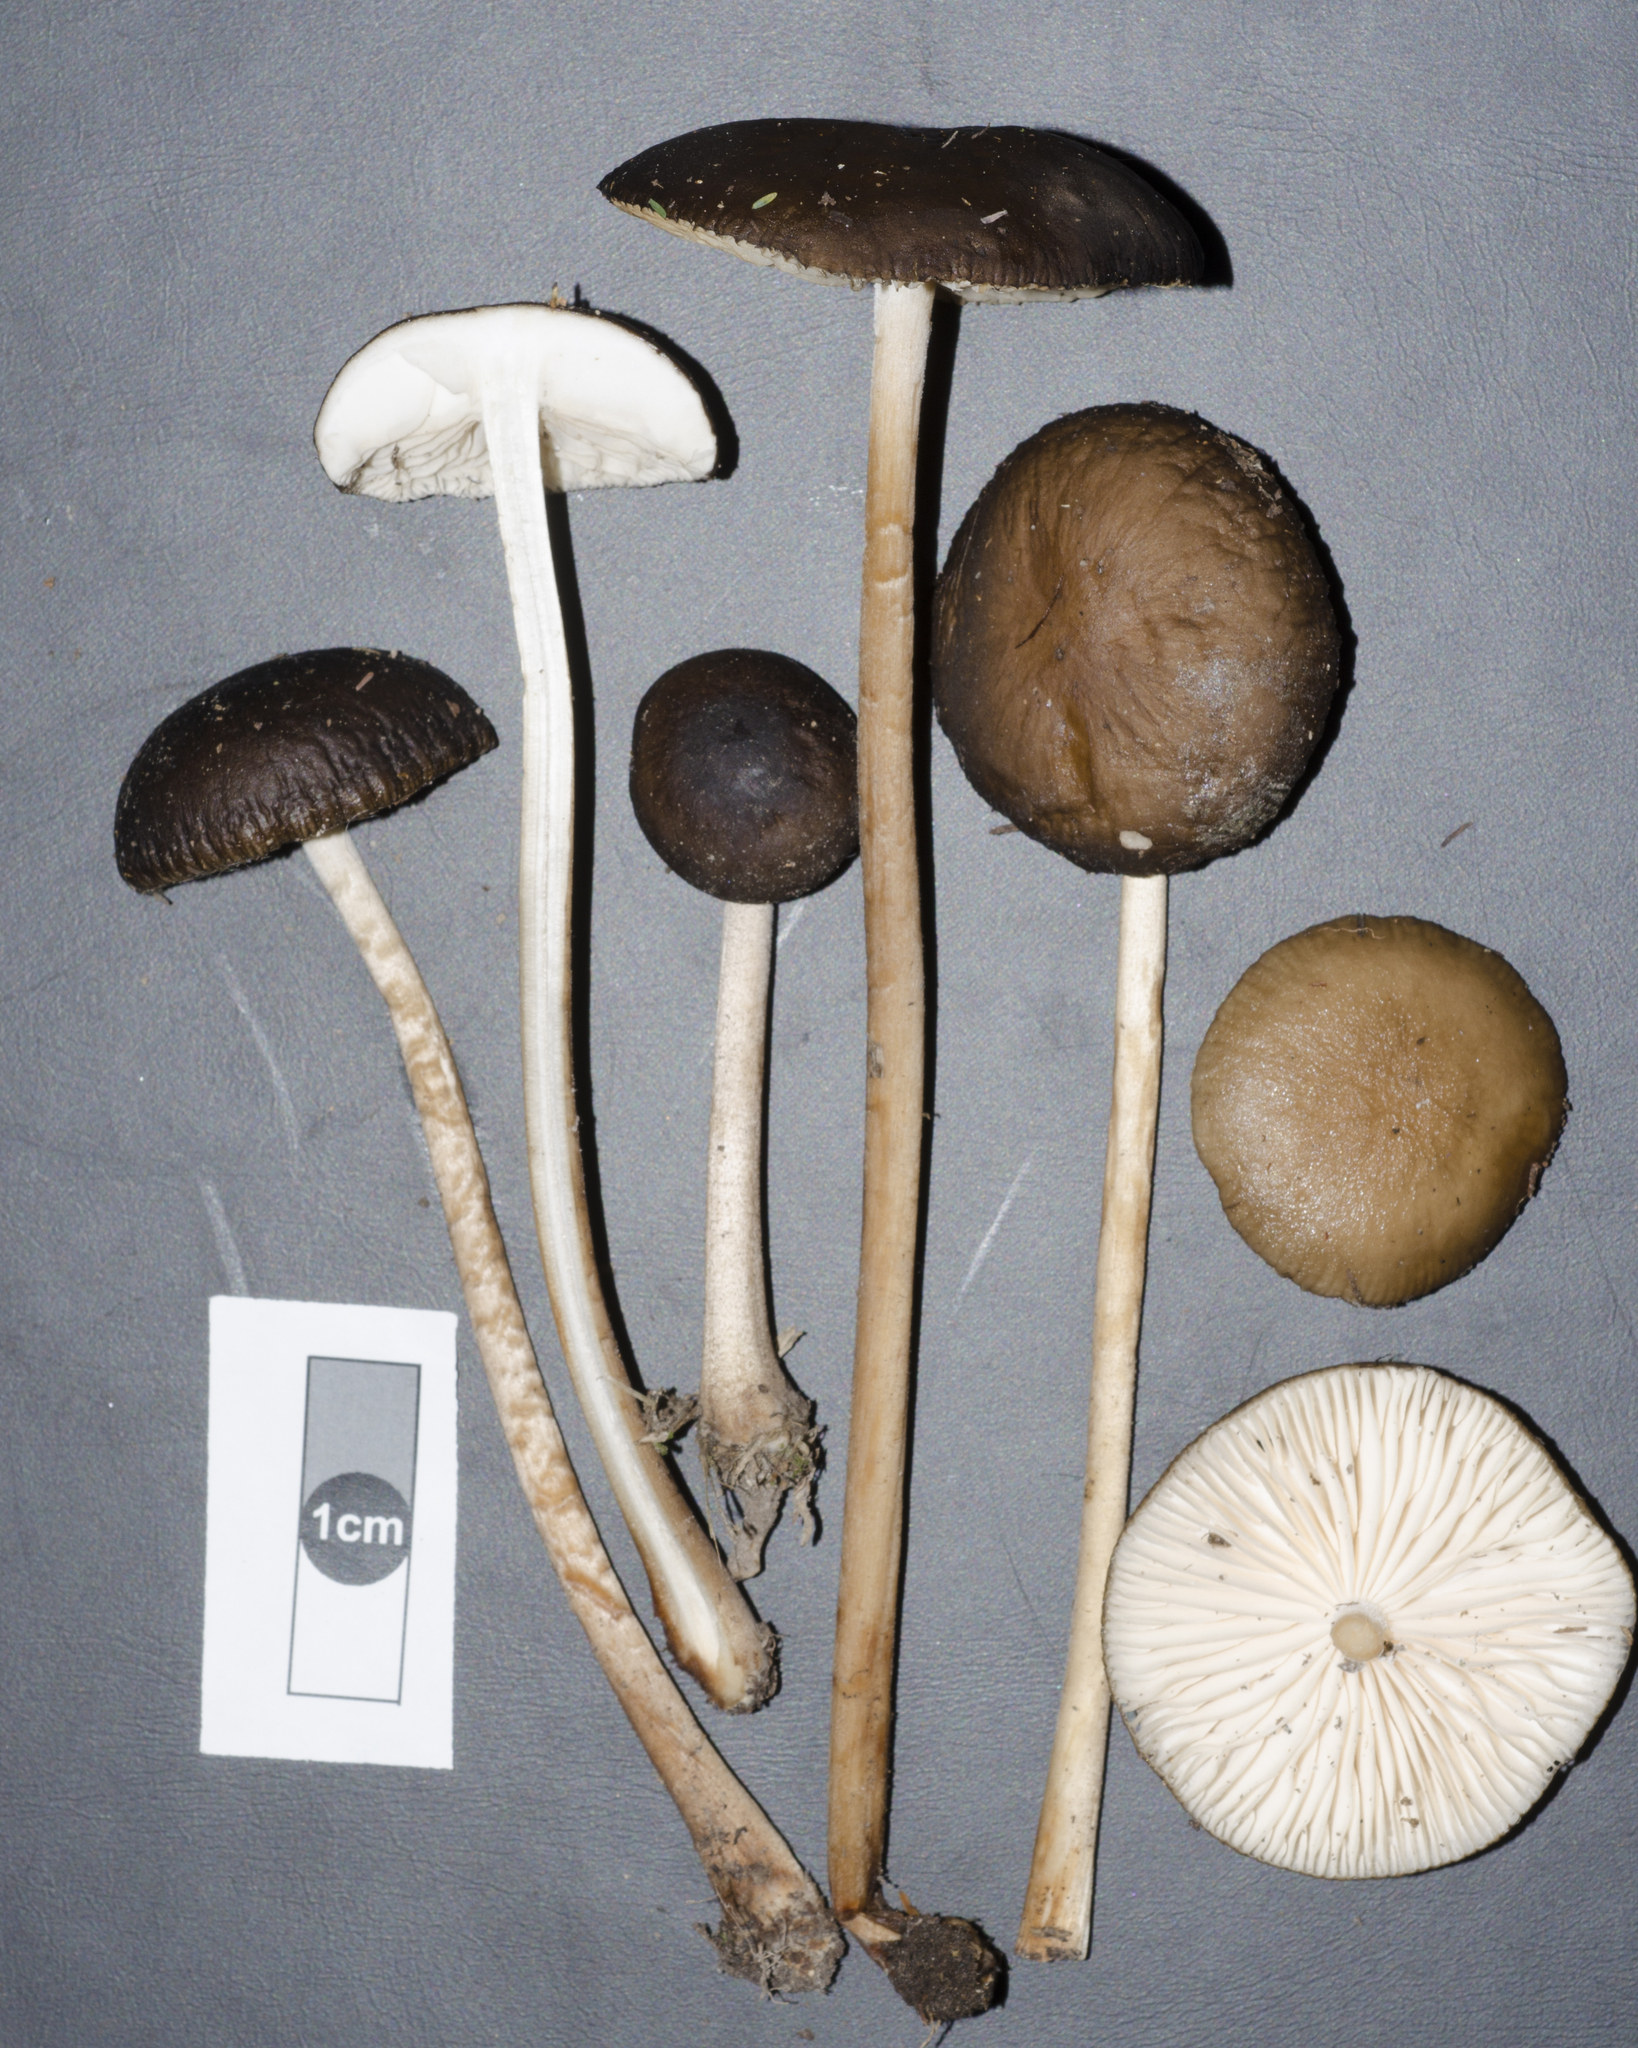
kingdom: Fungi
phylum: Basidiomycota
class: Agaricomycetes
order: Agaricales
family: Physalacriaceae
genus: Hymenopellis
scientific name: Hymenopellis mundroola
